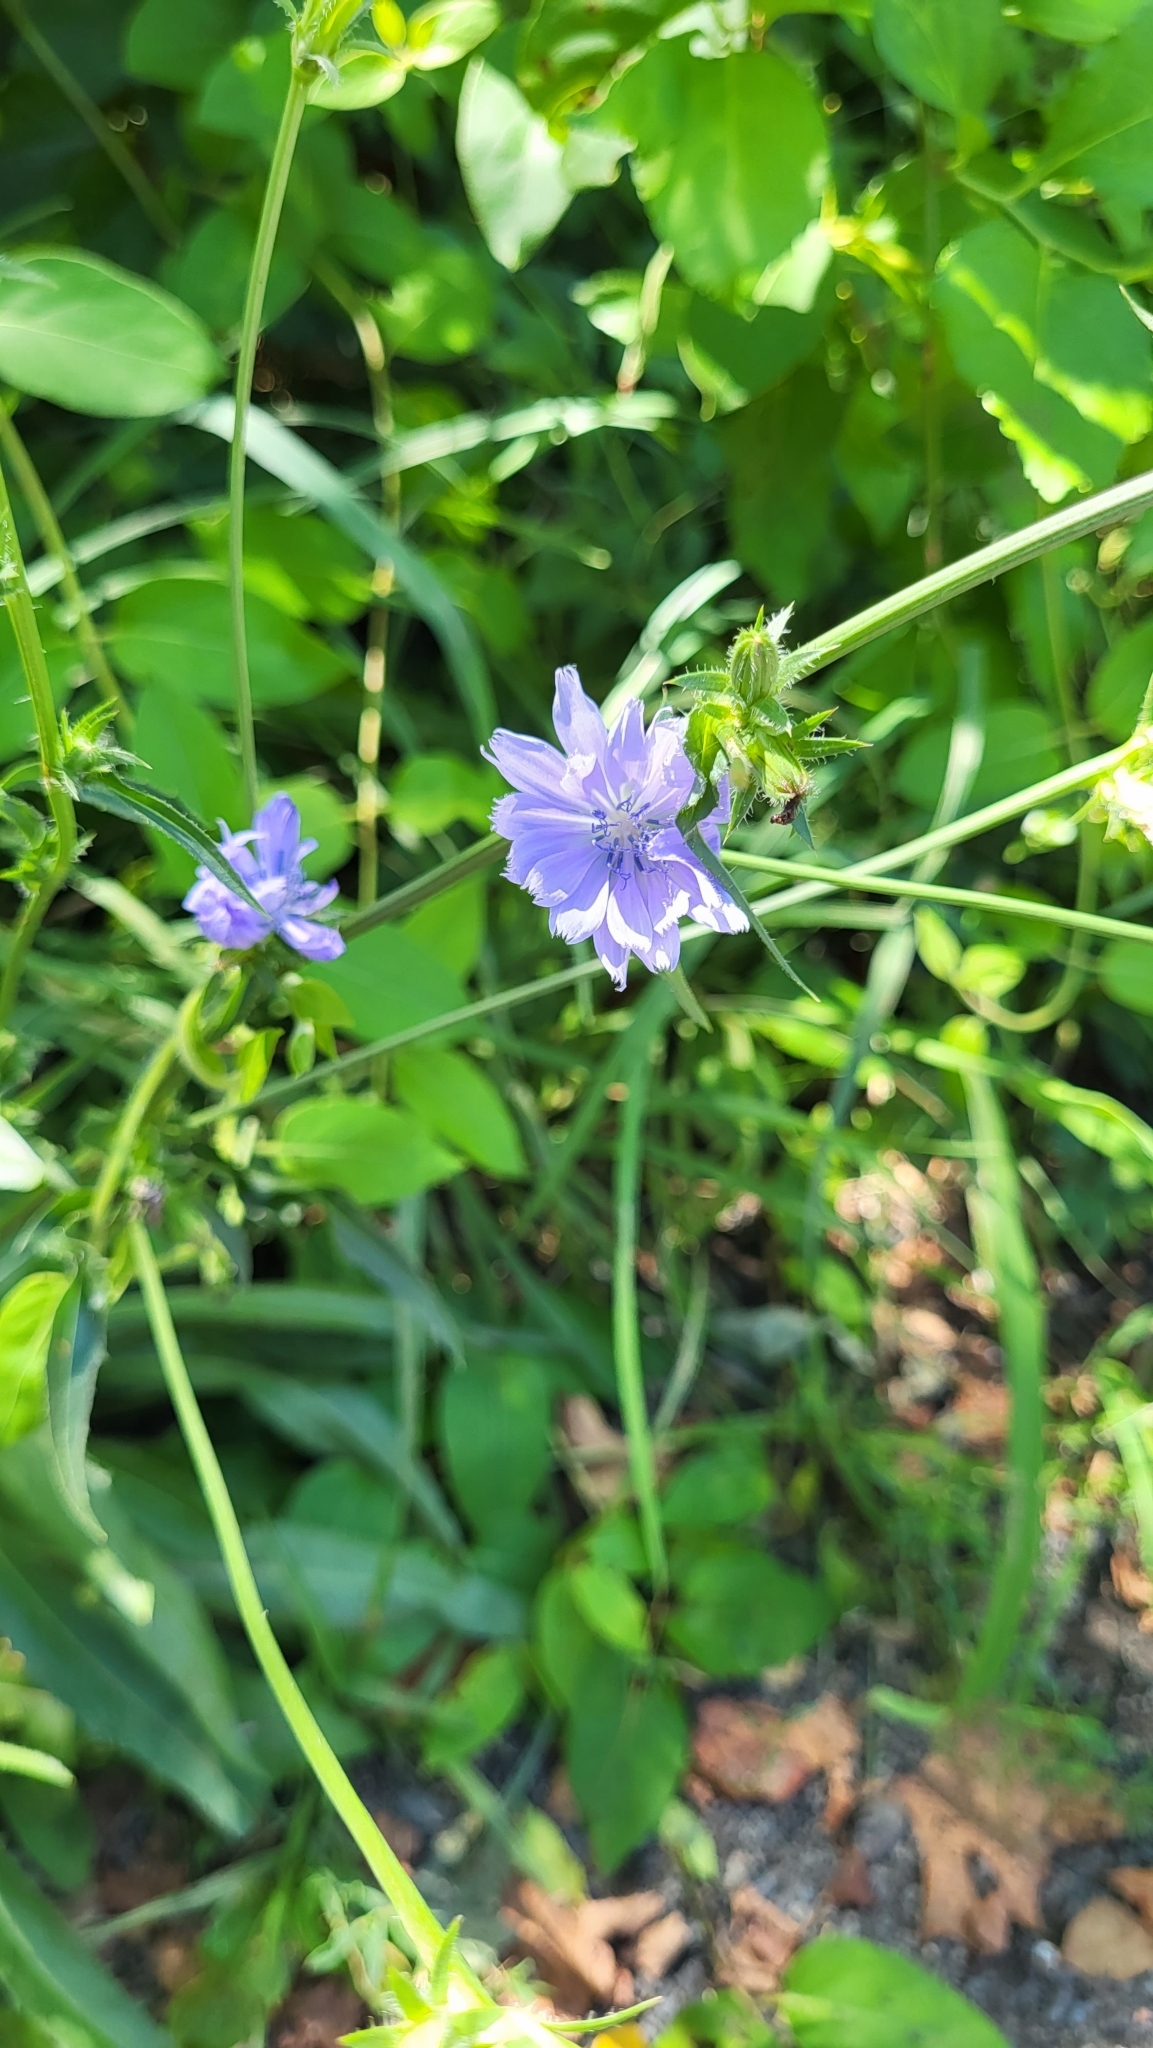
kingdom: Plantae
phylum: Tracheophyta
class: Magnoliopsida
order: Asterales
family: Asteraceae
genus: Cichorium
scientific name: Cichorium intybus
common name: Chicory
